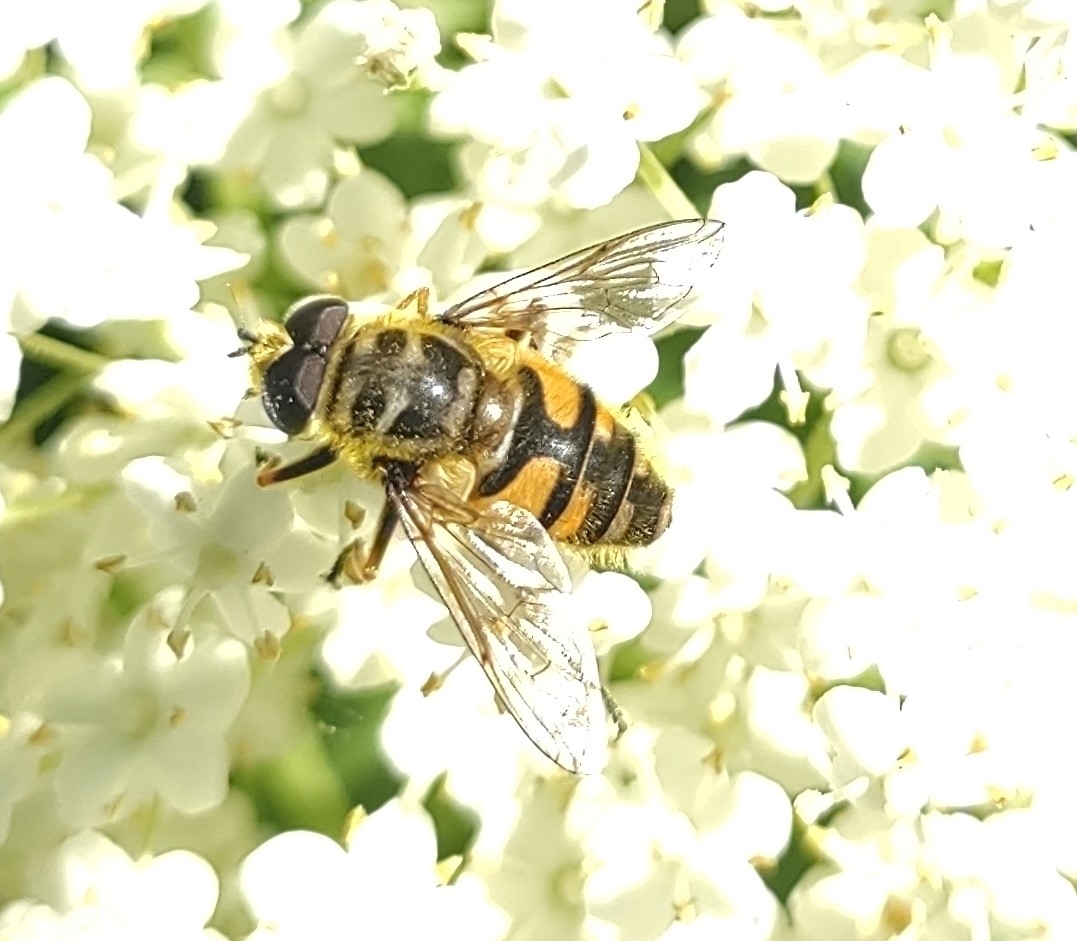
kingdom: Animalia
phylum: Arthropoda
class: Insecta
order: Diptera
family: Syrphidae
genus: Myathropa
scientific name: Myathropa florea
